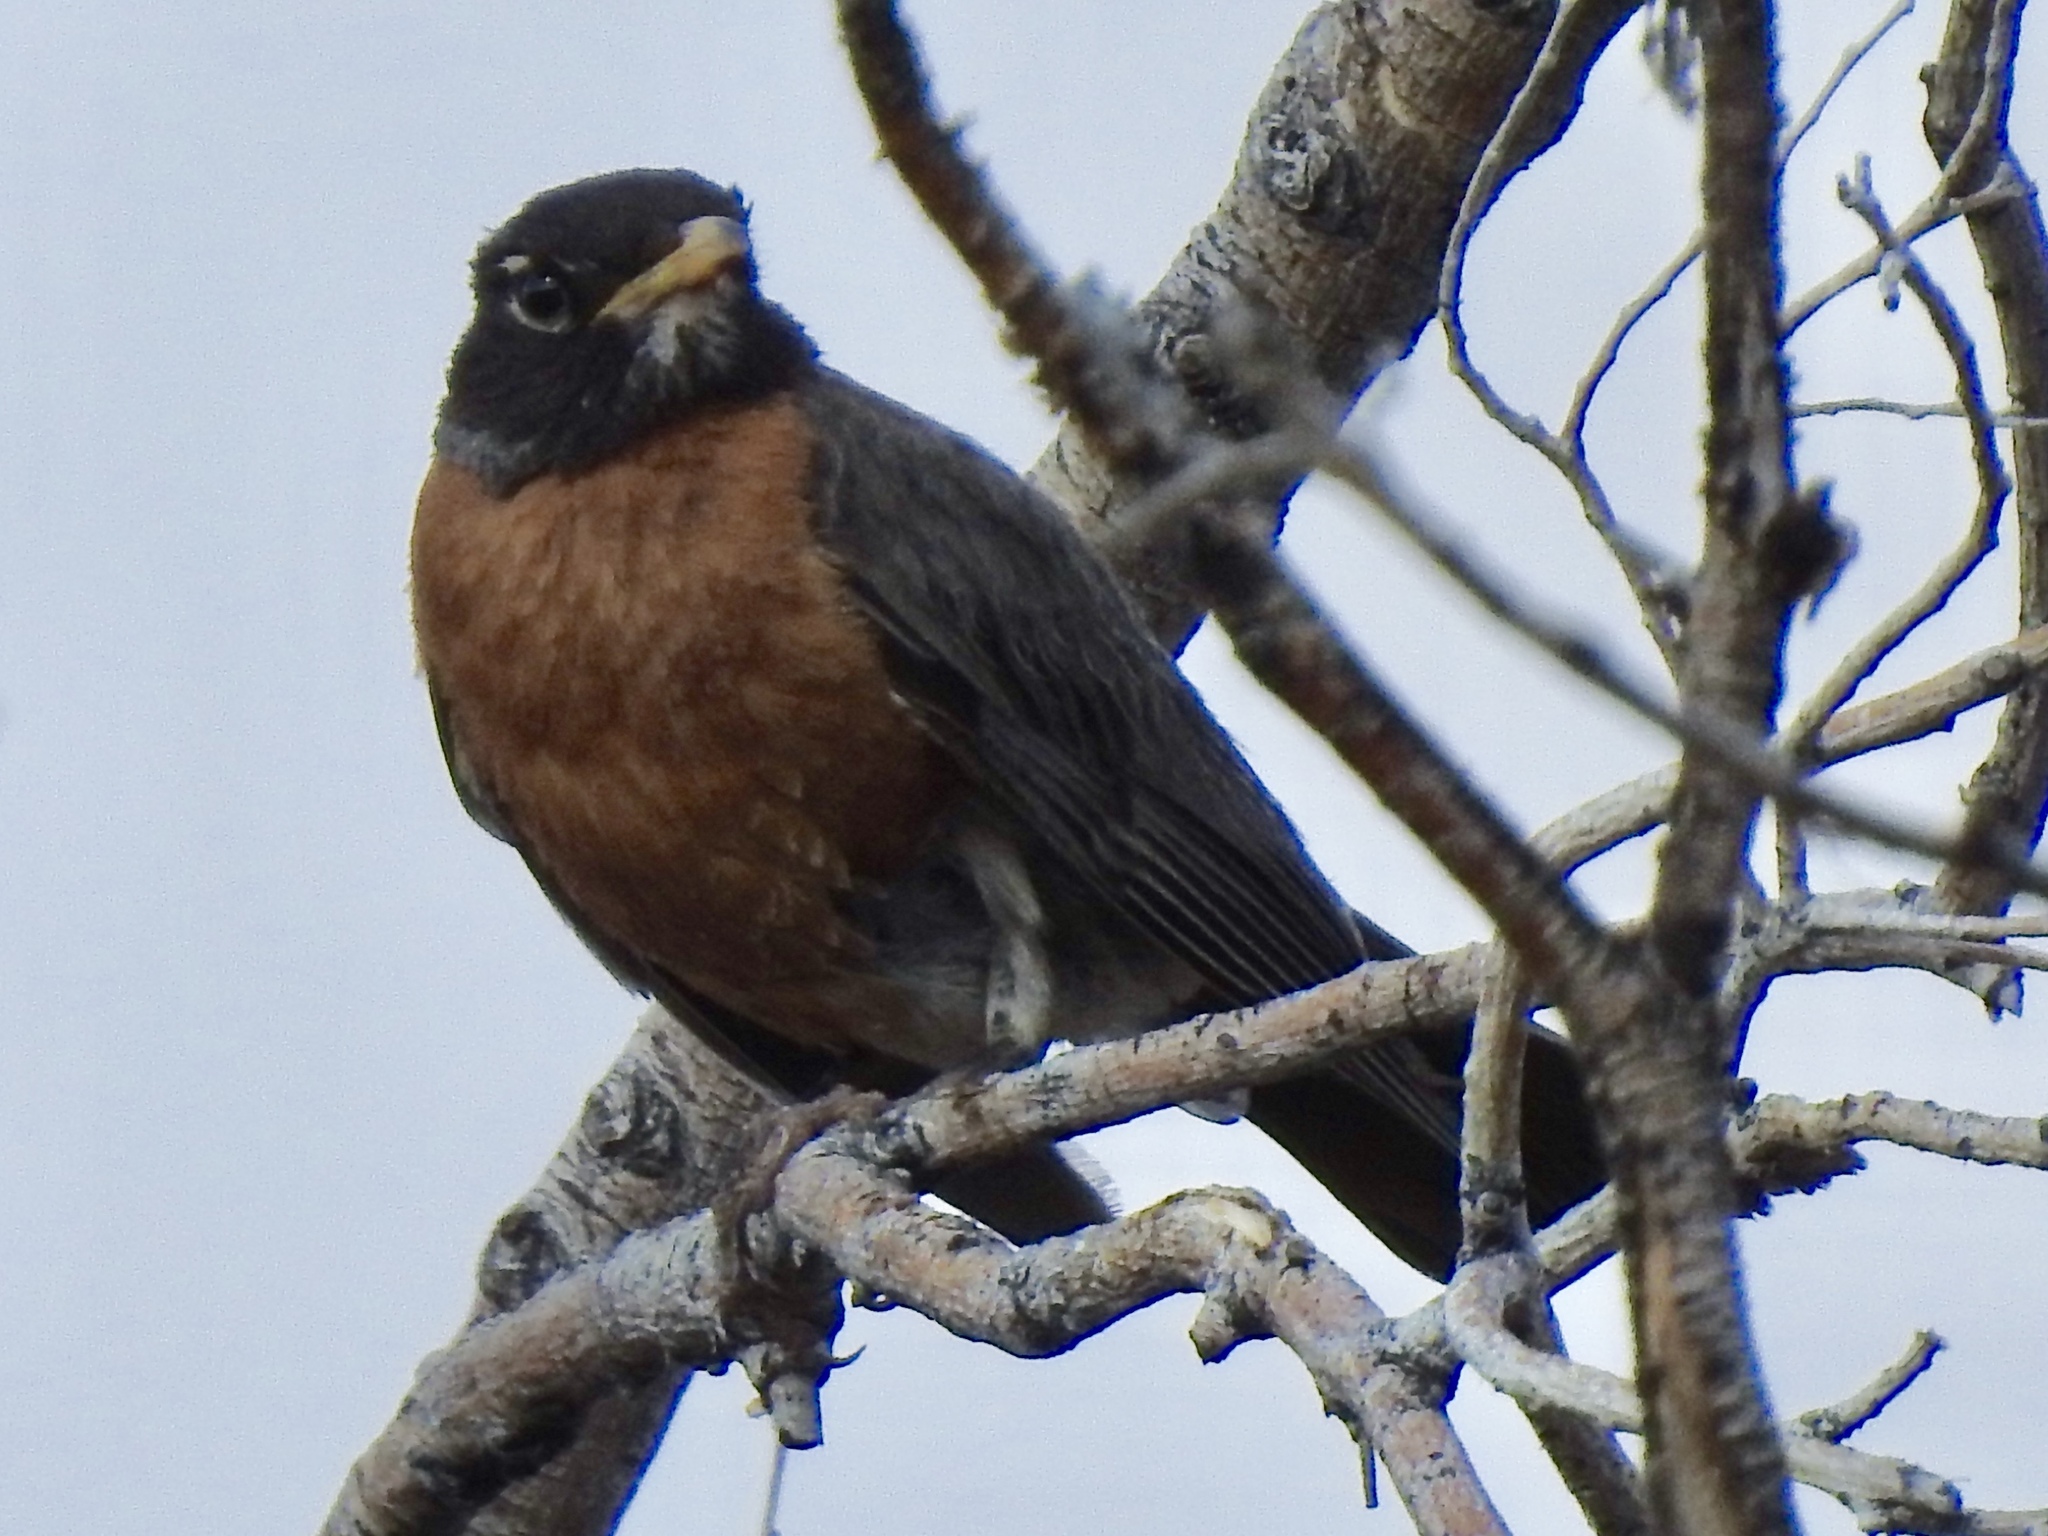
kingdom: Animalia
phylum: Chordata
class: Aves
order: Passeriformes
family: Turdidae
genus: Turdus
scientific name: Turdus migratorius
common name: American robin
